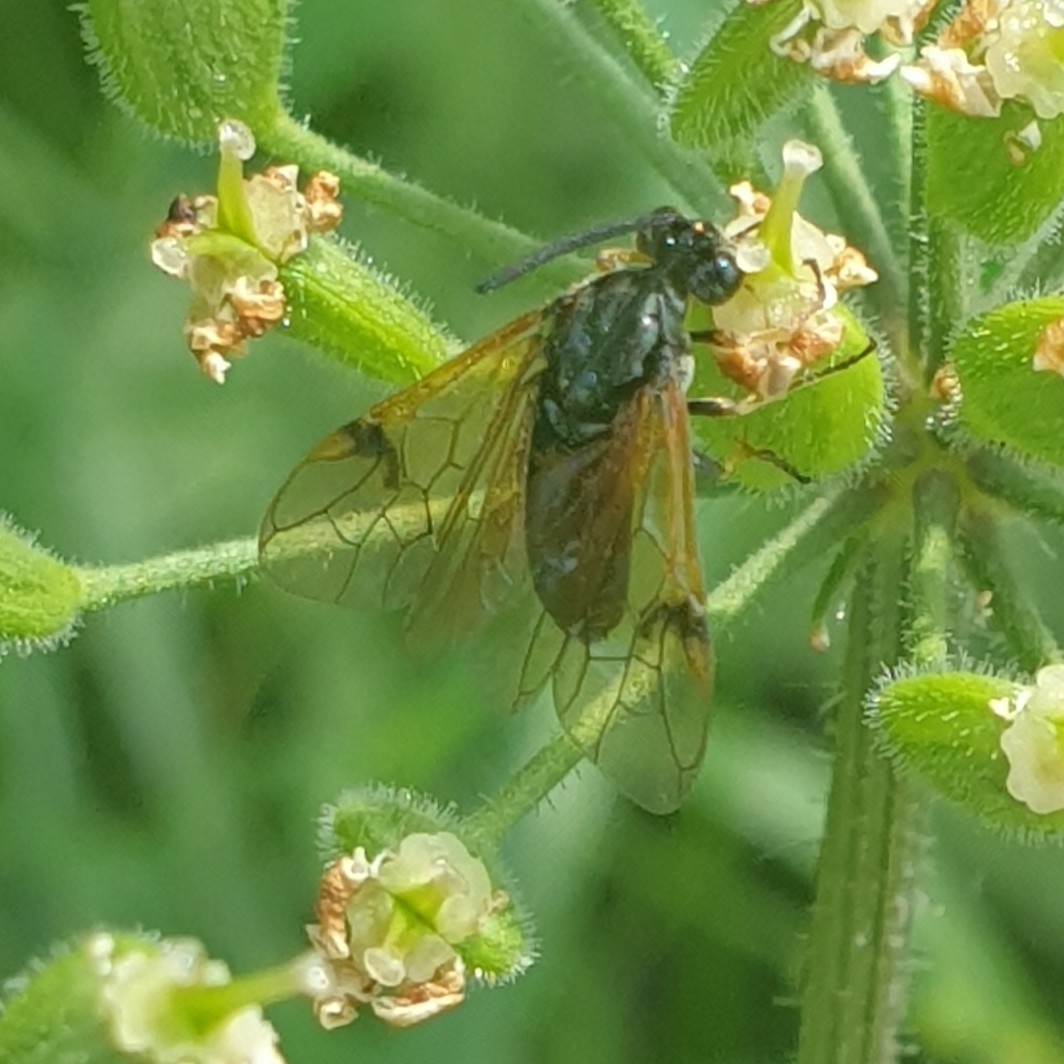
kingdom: Animalia
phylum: Arthropoda
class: Insecta
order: Hymenoptera
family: Argidae
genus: Arge
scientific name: Arge ustulata
